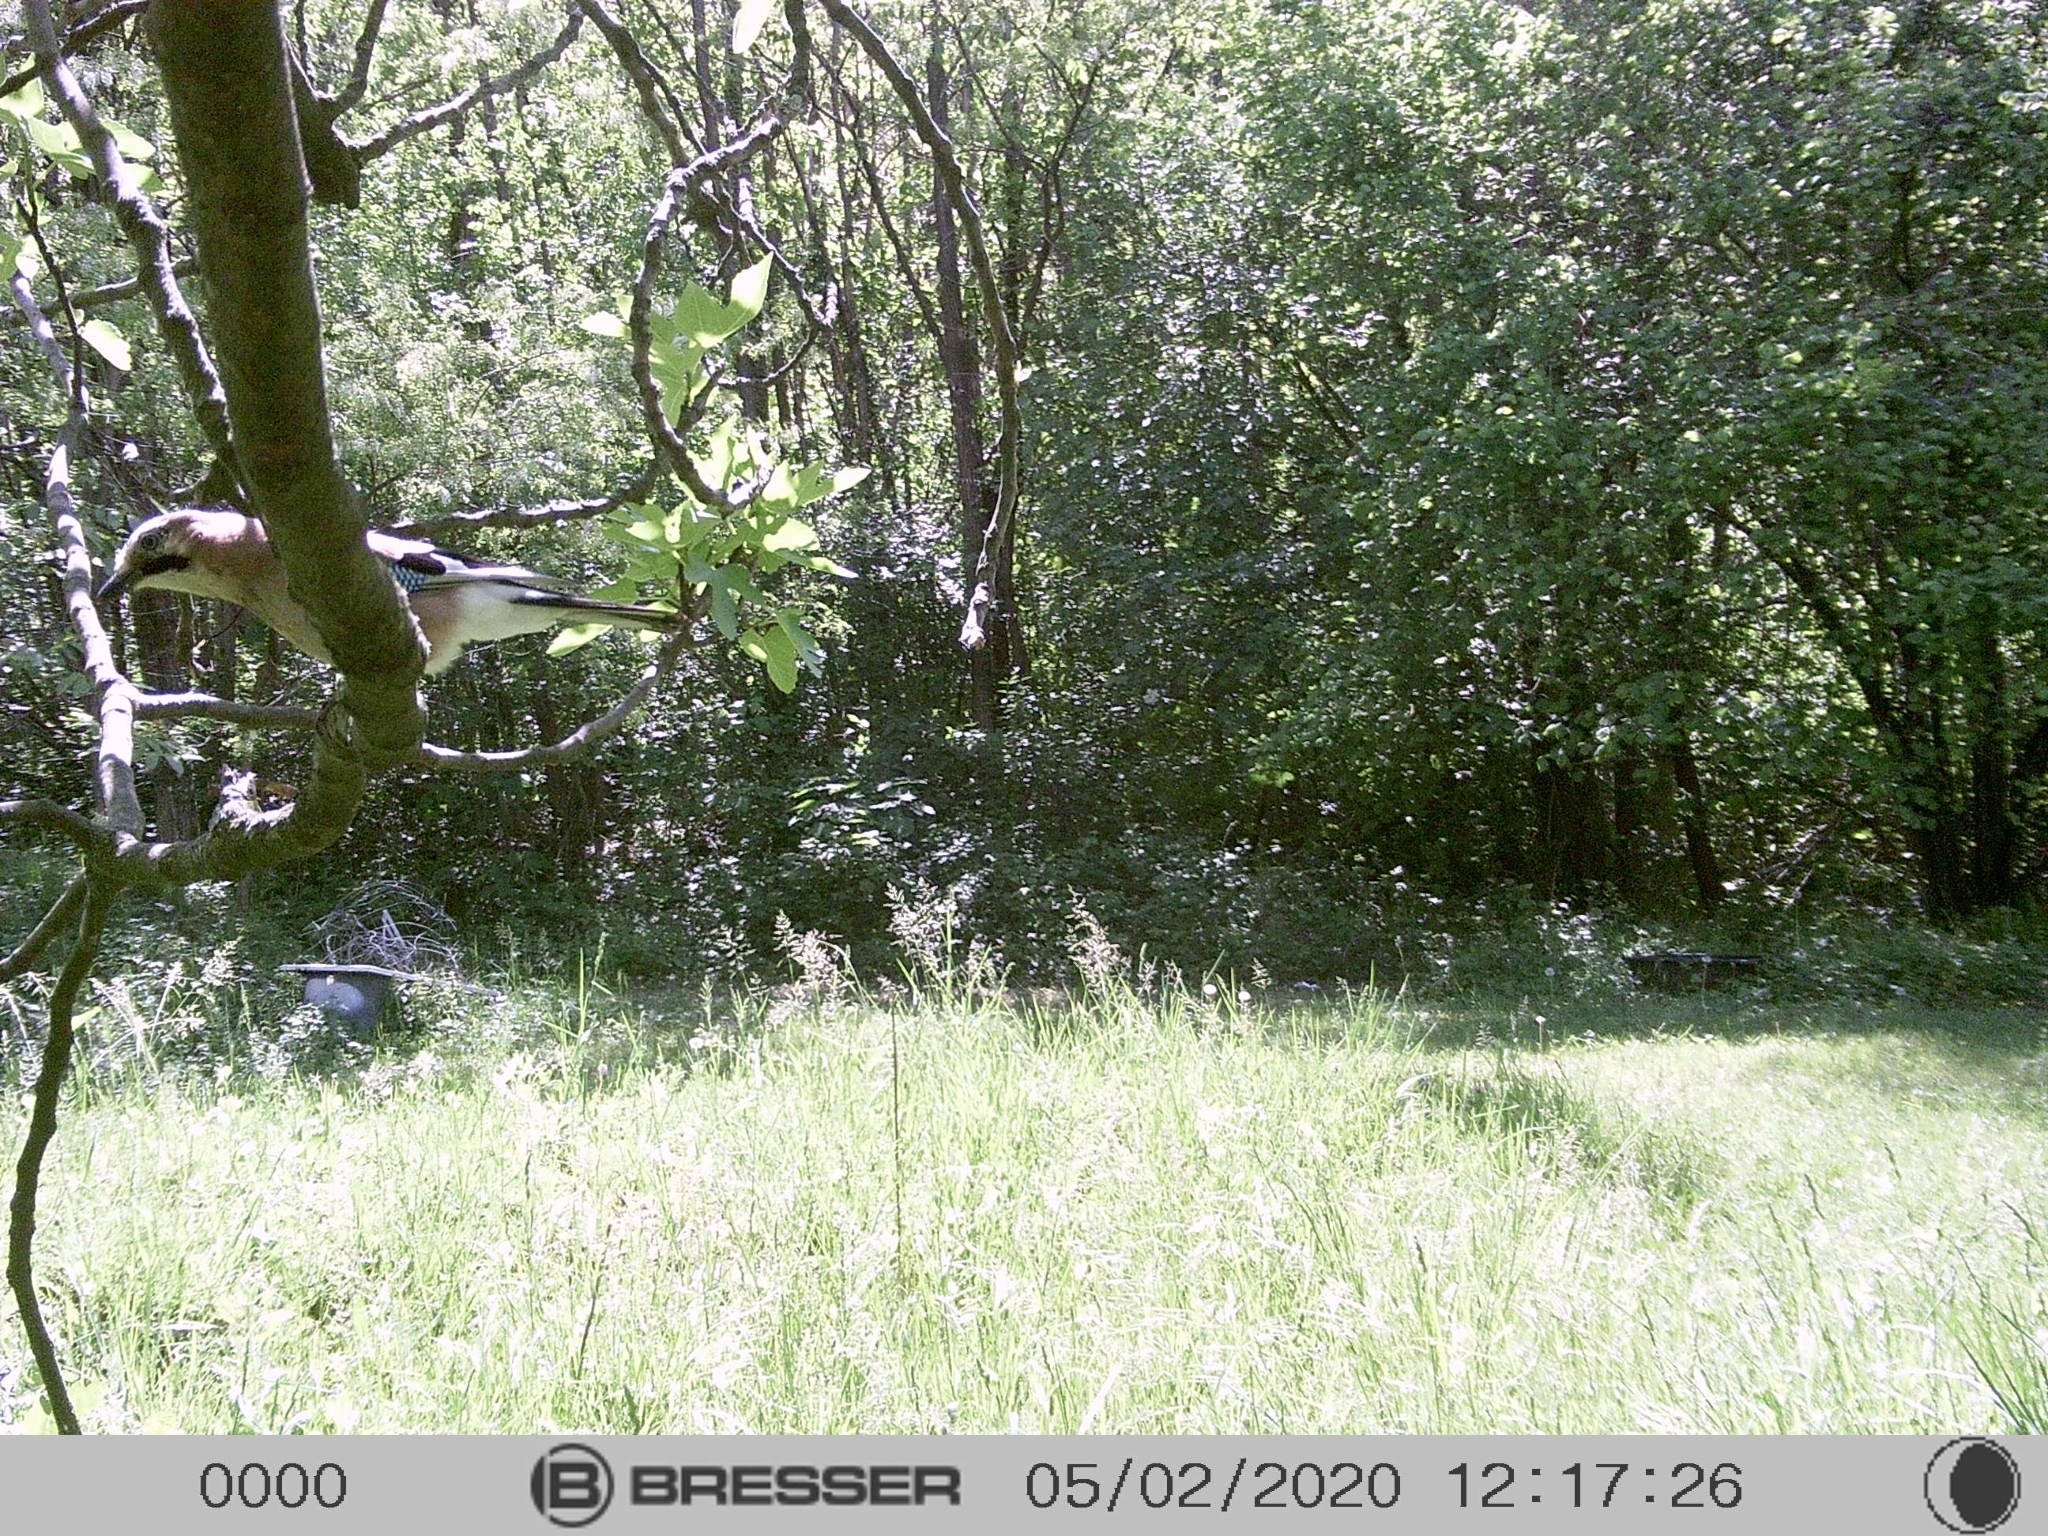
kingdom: Animalia
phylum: Chordata
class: Aves
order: Passeriformes
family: Corvidae
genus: Garrulus
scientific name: Garrulus glandarius
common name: Eurasian jay
